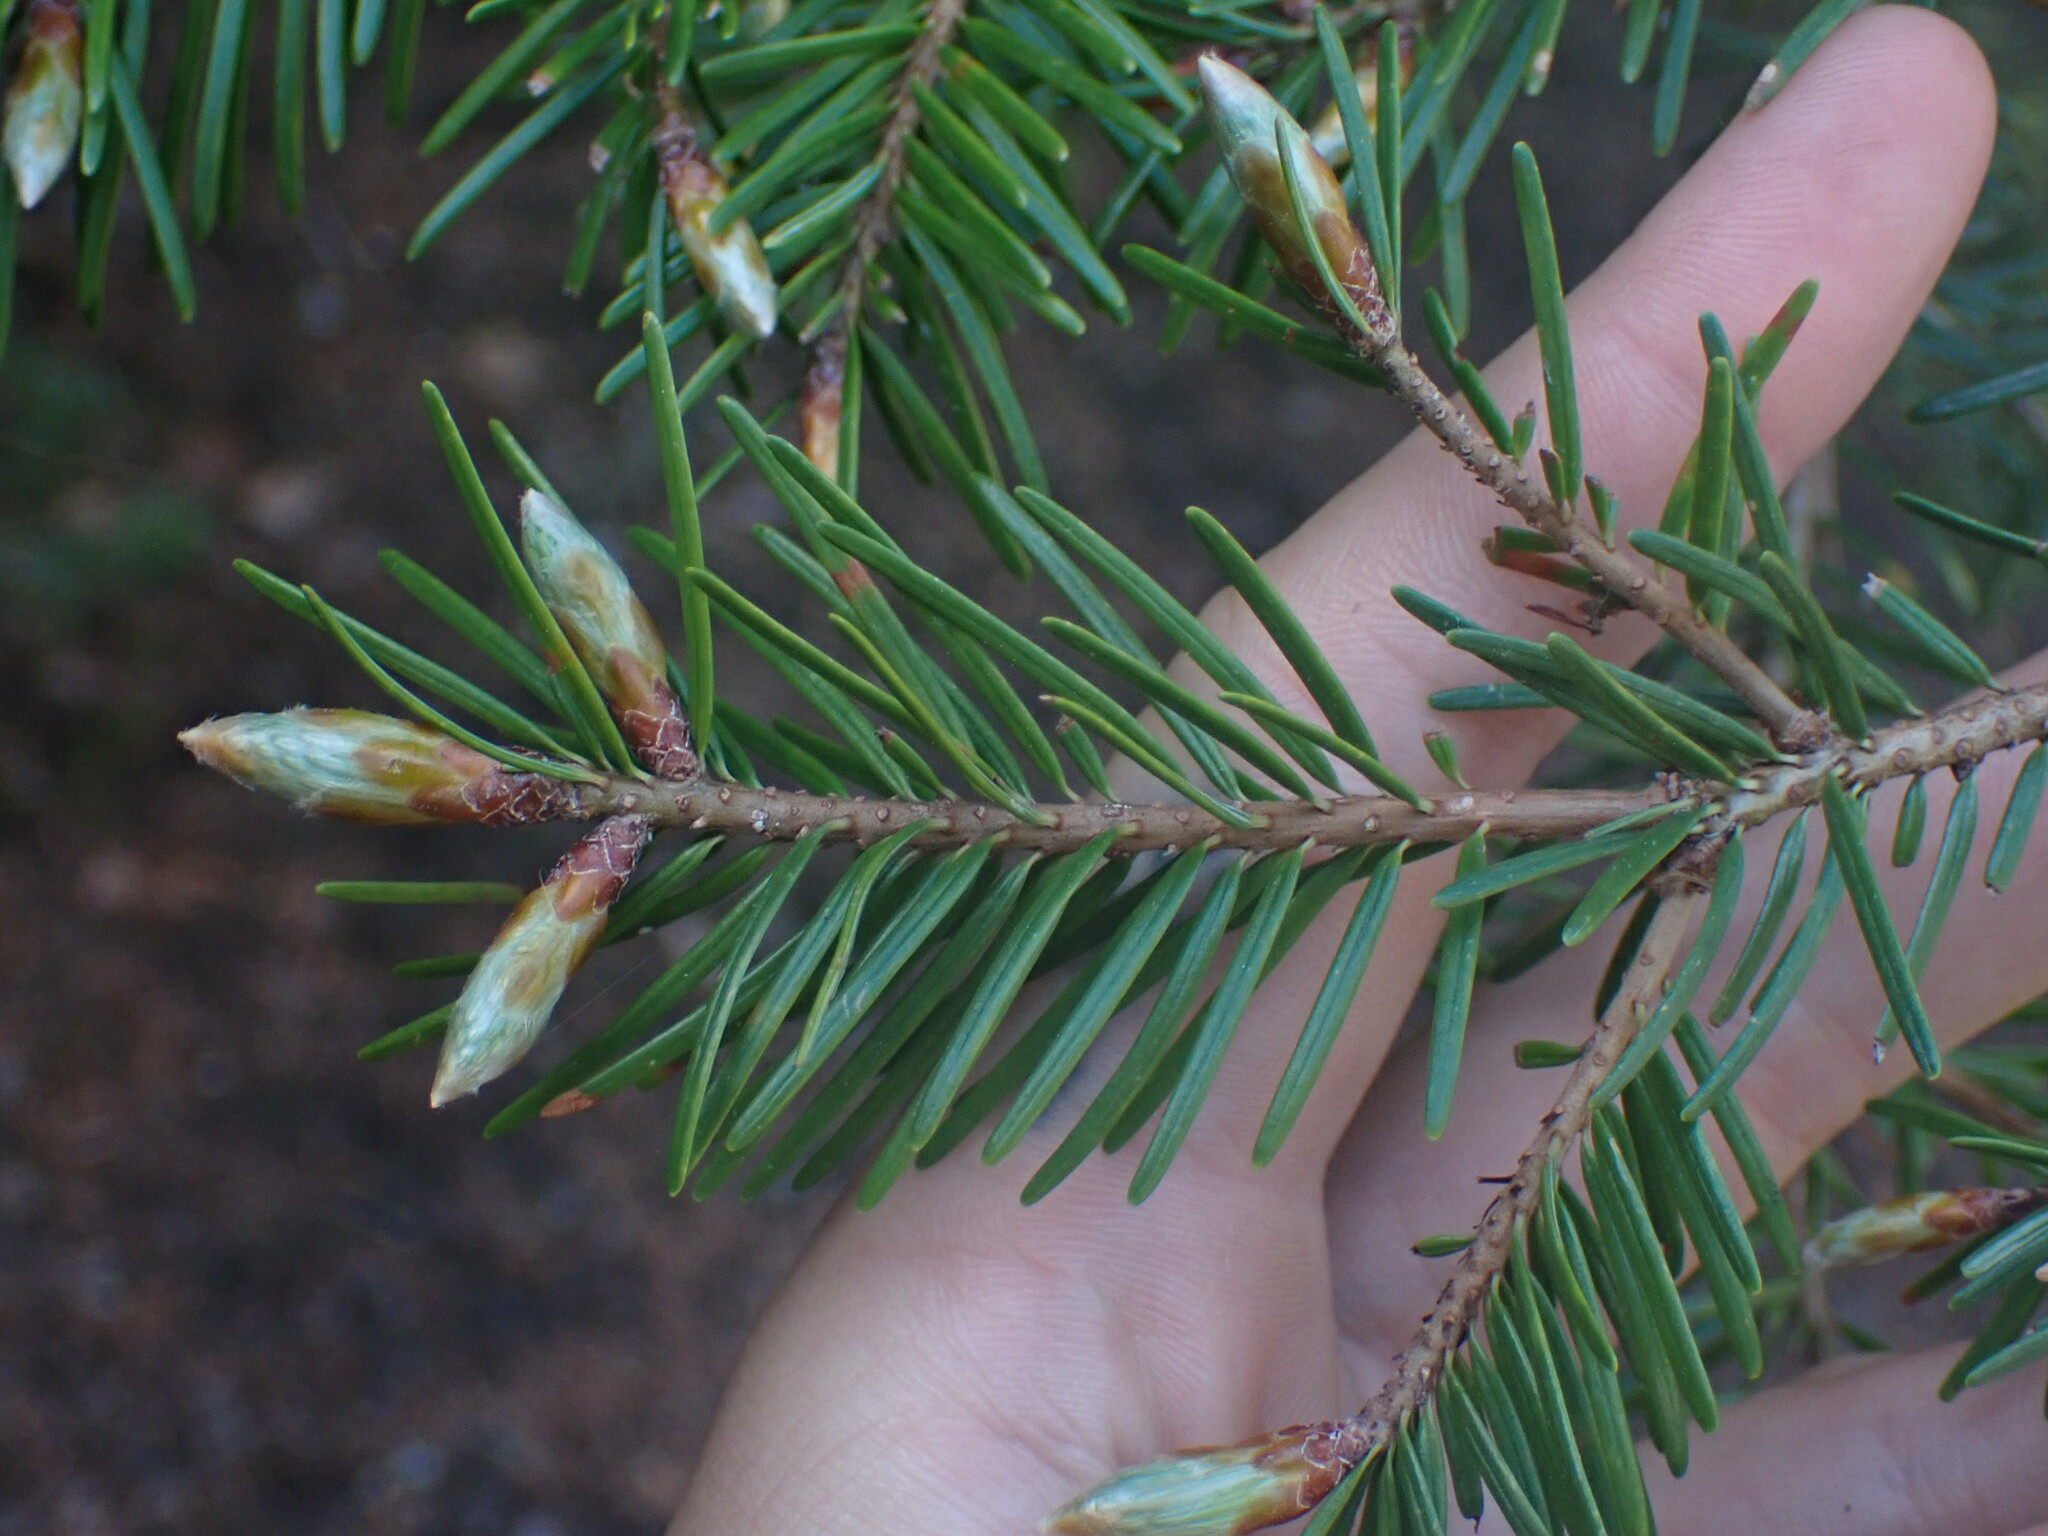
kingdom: Plantae
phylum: Tracheophyta
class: Pinopsida
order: Pinales
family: Pinaceae
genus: Pseudotsuga
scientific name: Pseudotsuga menziesii
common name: Douglas fir
